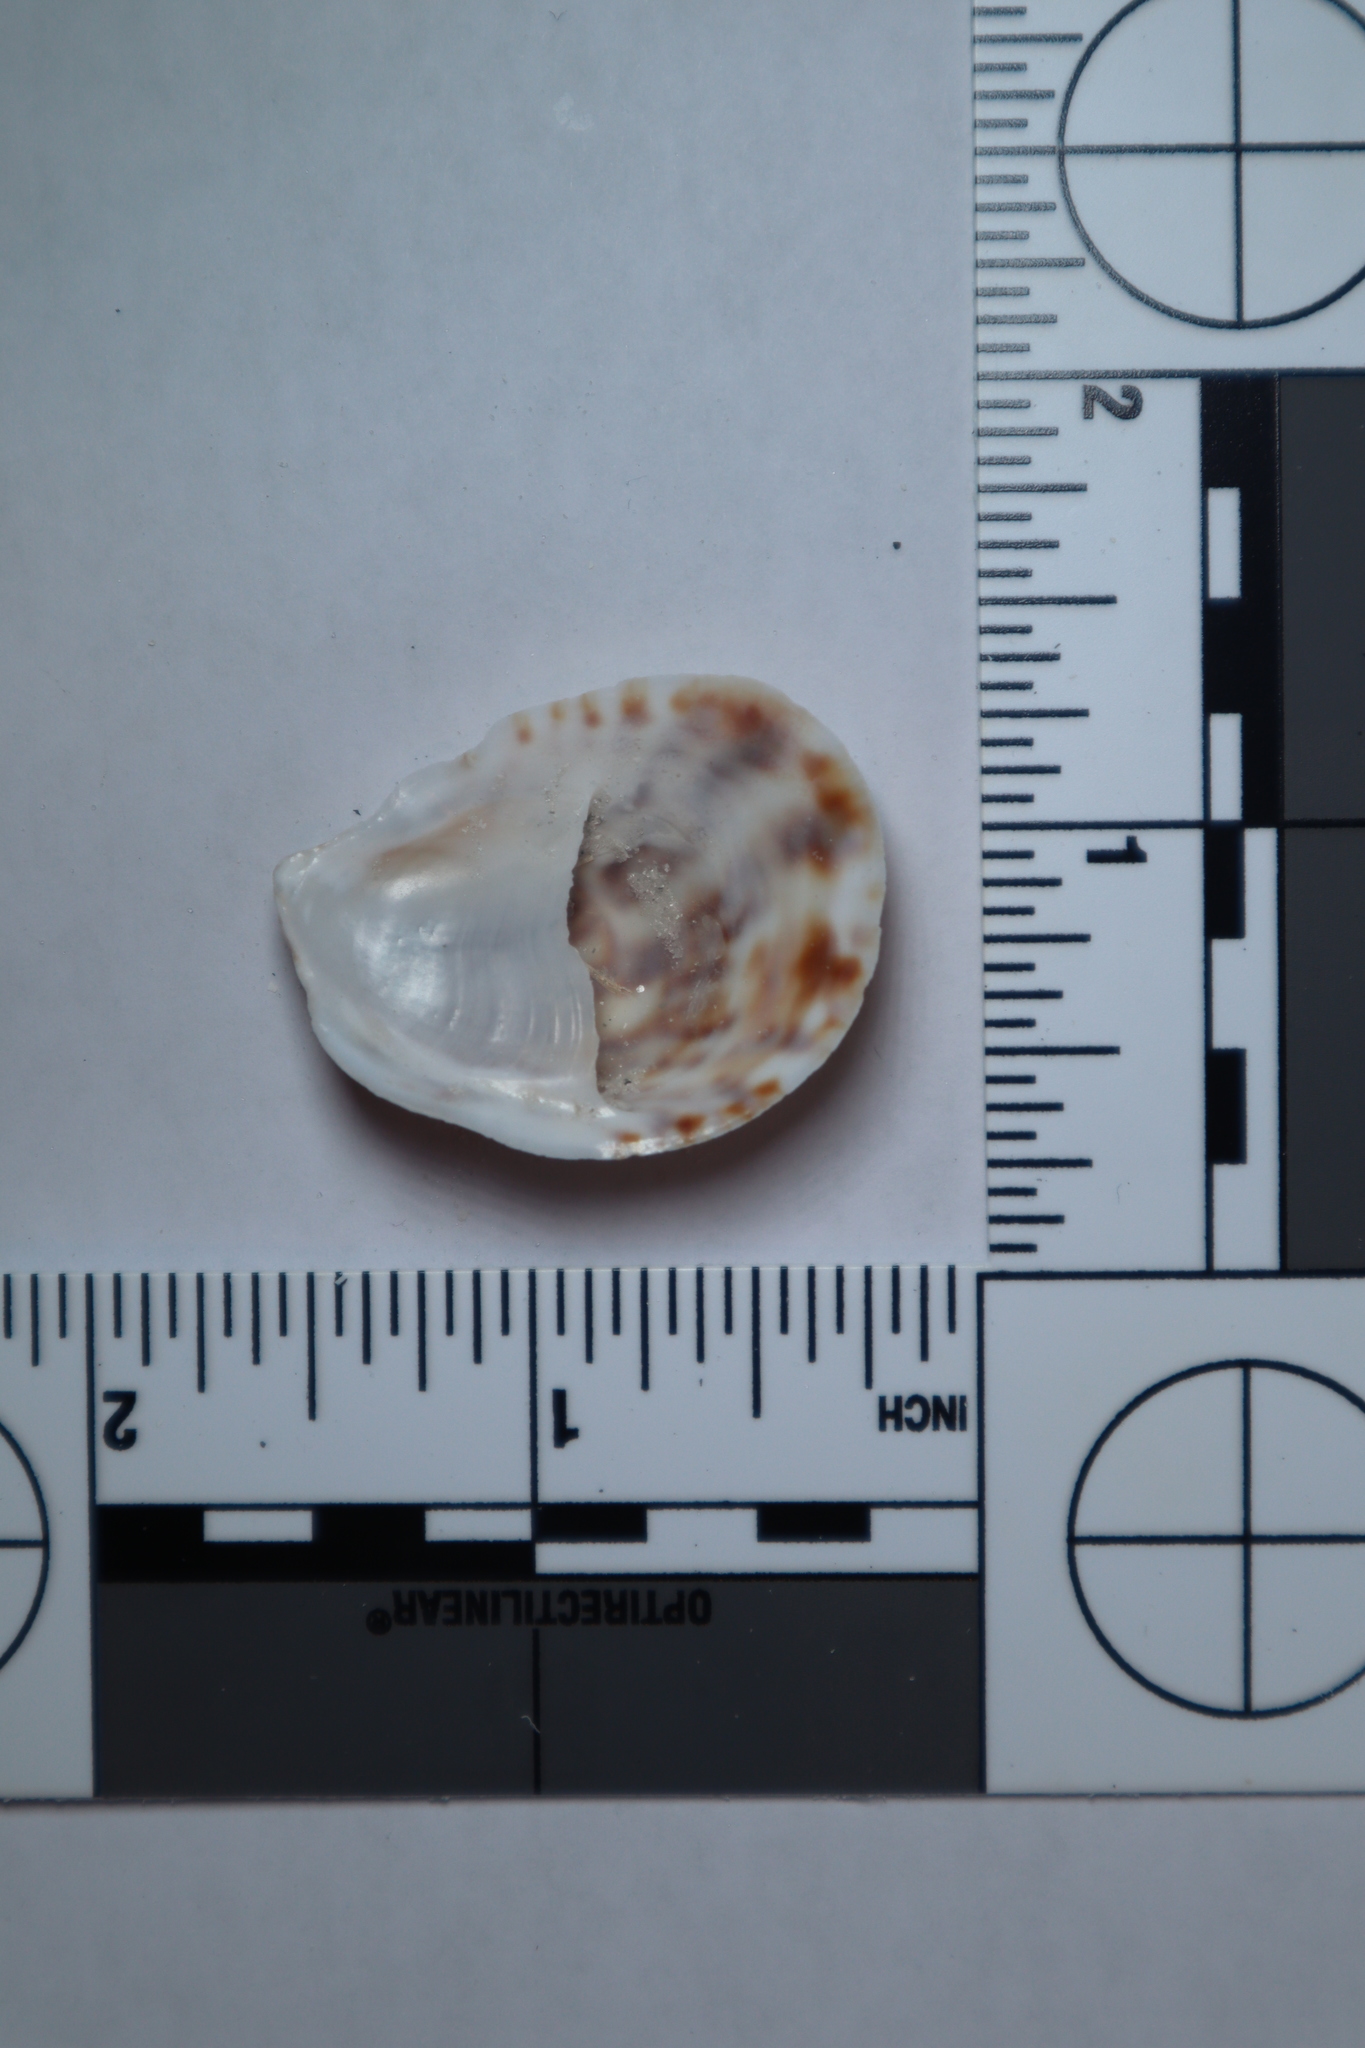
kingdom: Animalia
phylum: Mollusca
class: Gastropoda
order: Littorinimorpha
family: Calyptraeidae
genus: Crepidula
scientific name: Crepidula fornicata
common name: Slipper limpet
